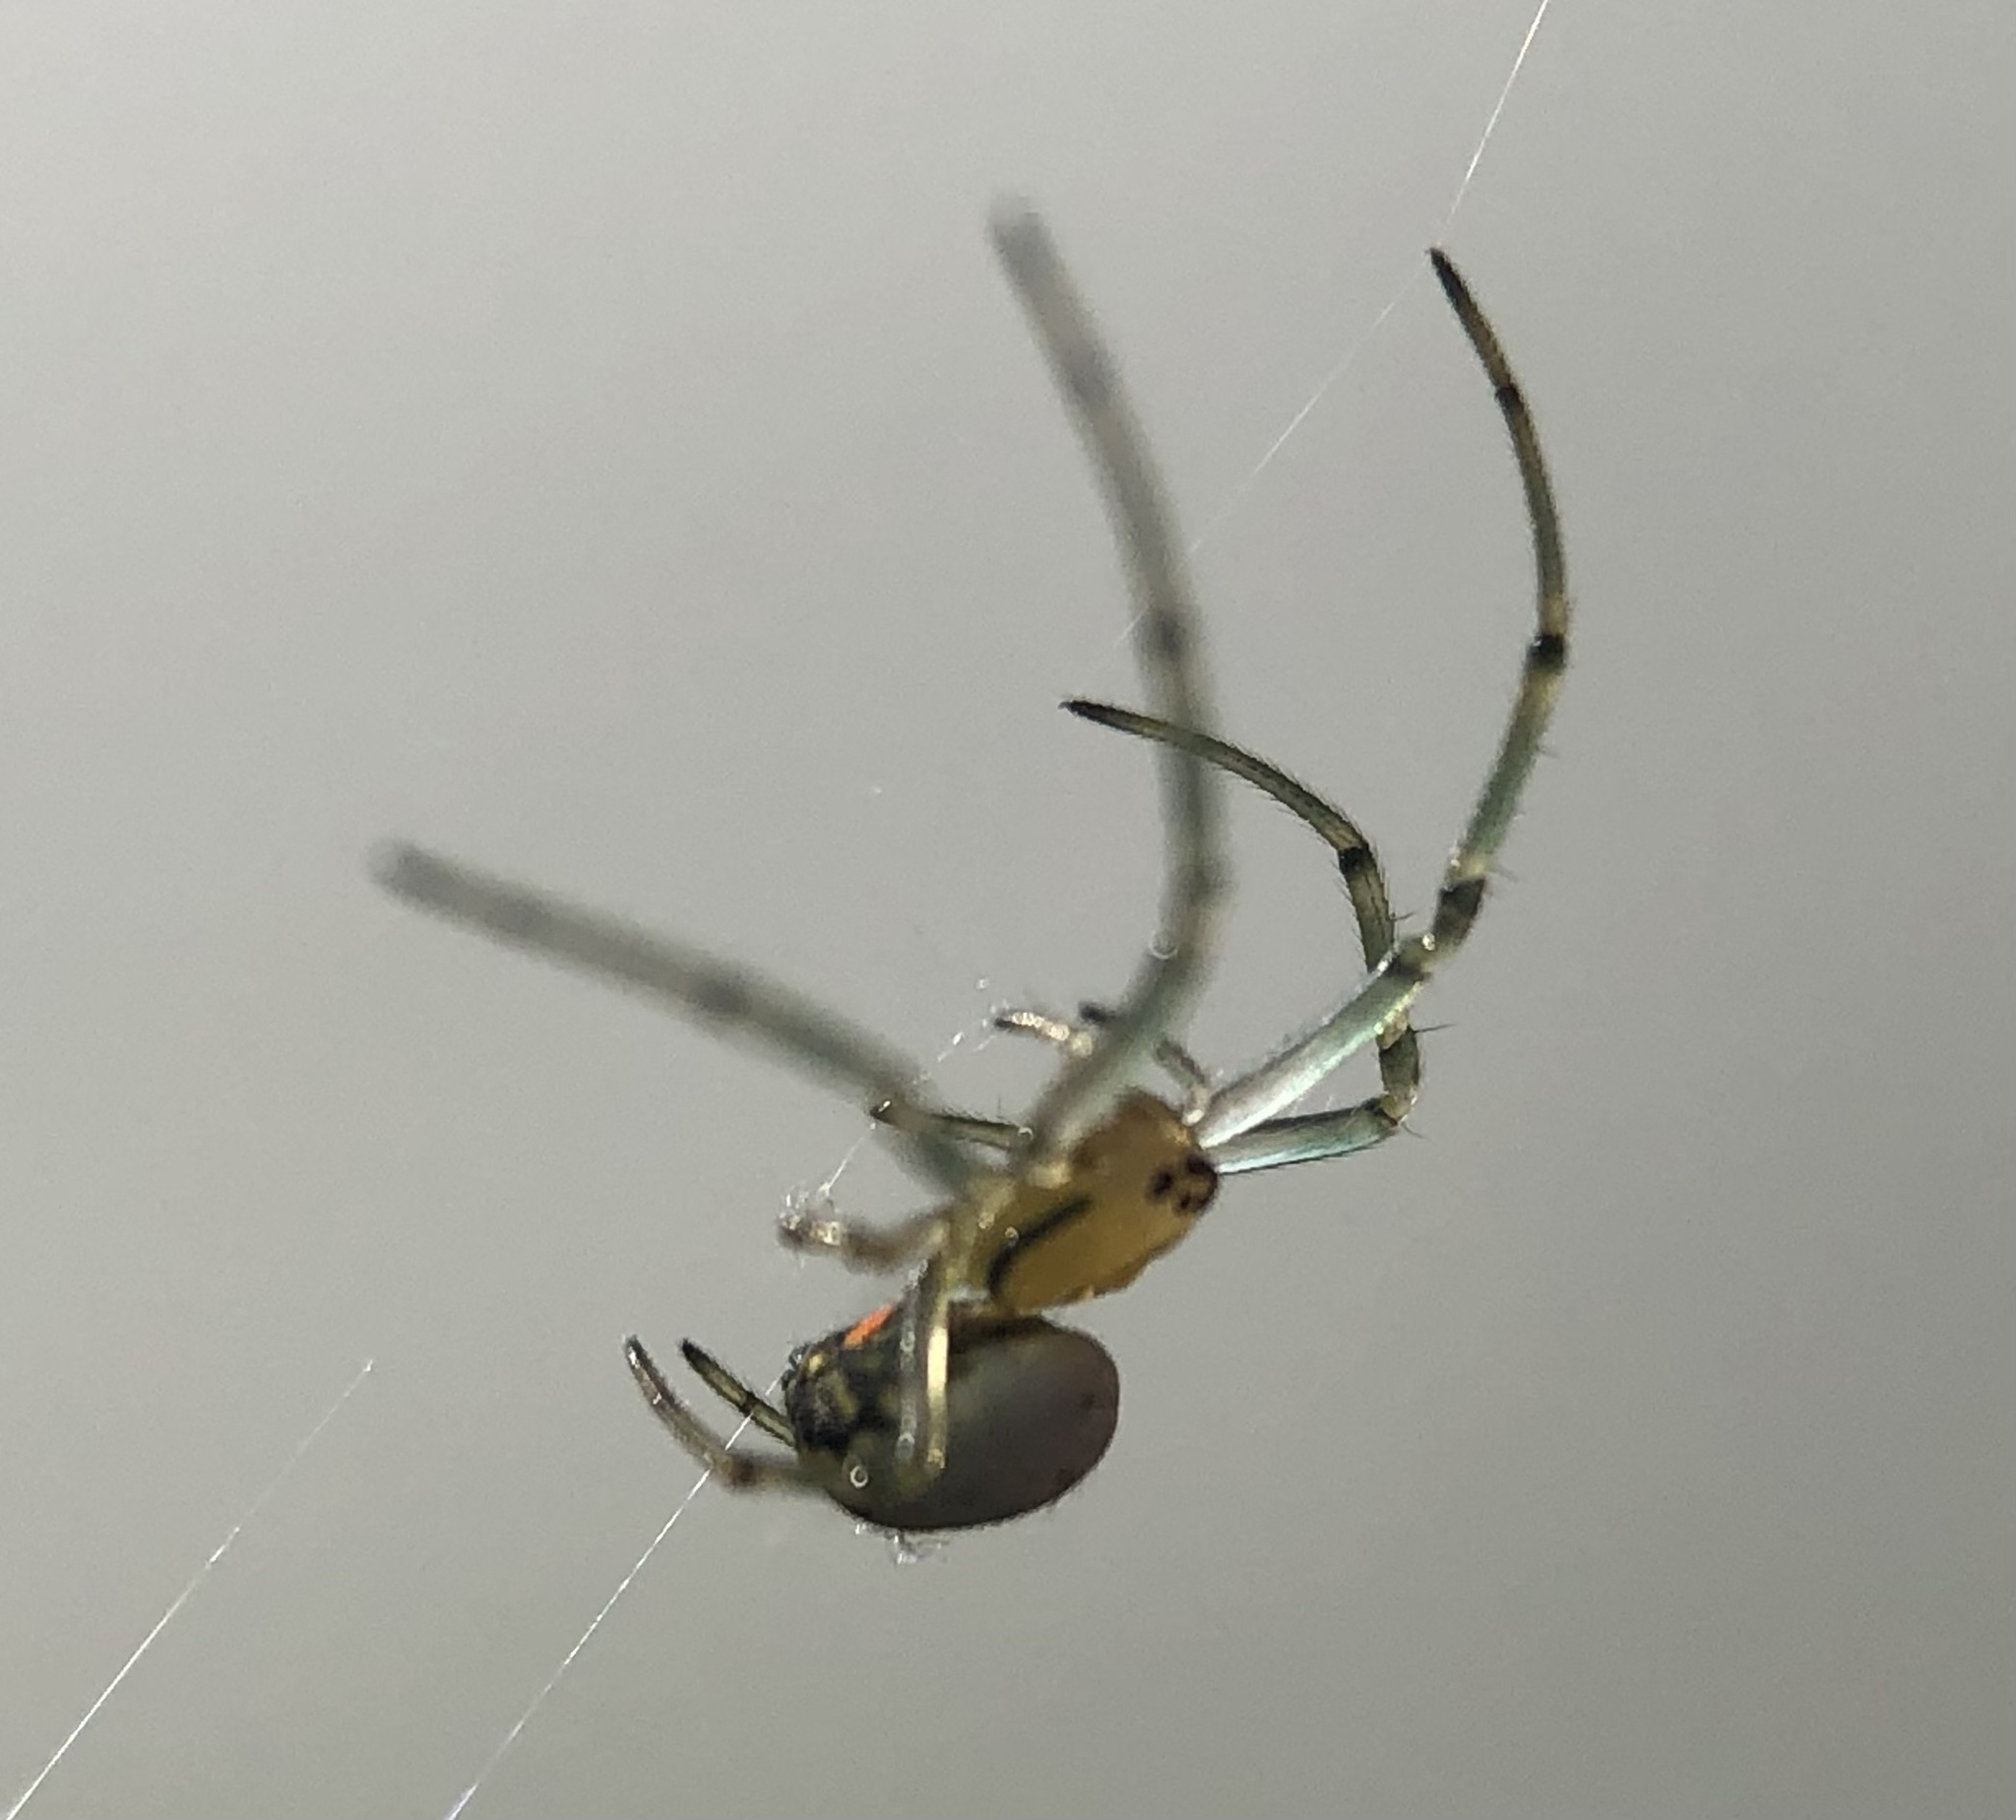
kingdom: Animalia
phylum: Arthropoda
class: Arachnida
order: Araneae
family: Tetragnathidae
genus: Leucauge
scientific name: Leucauge venusta
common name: Longjawed orb weavers
